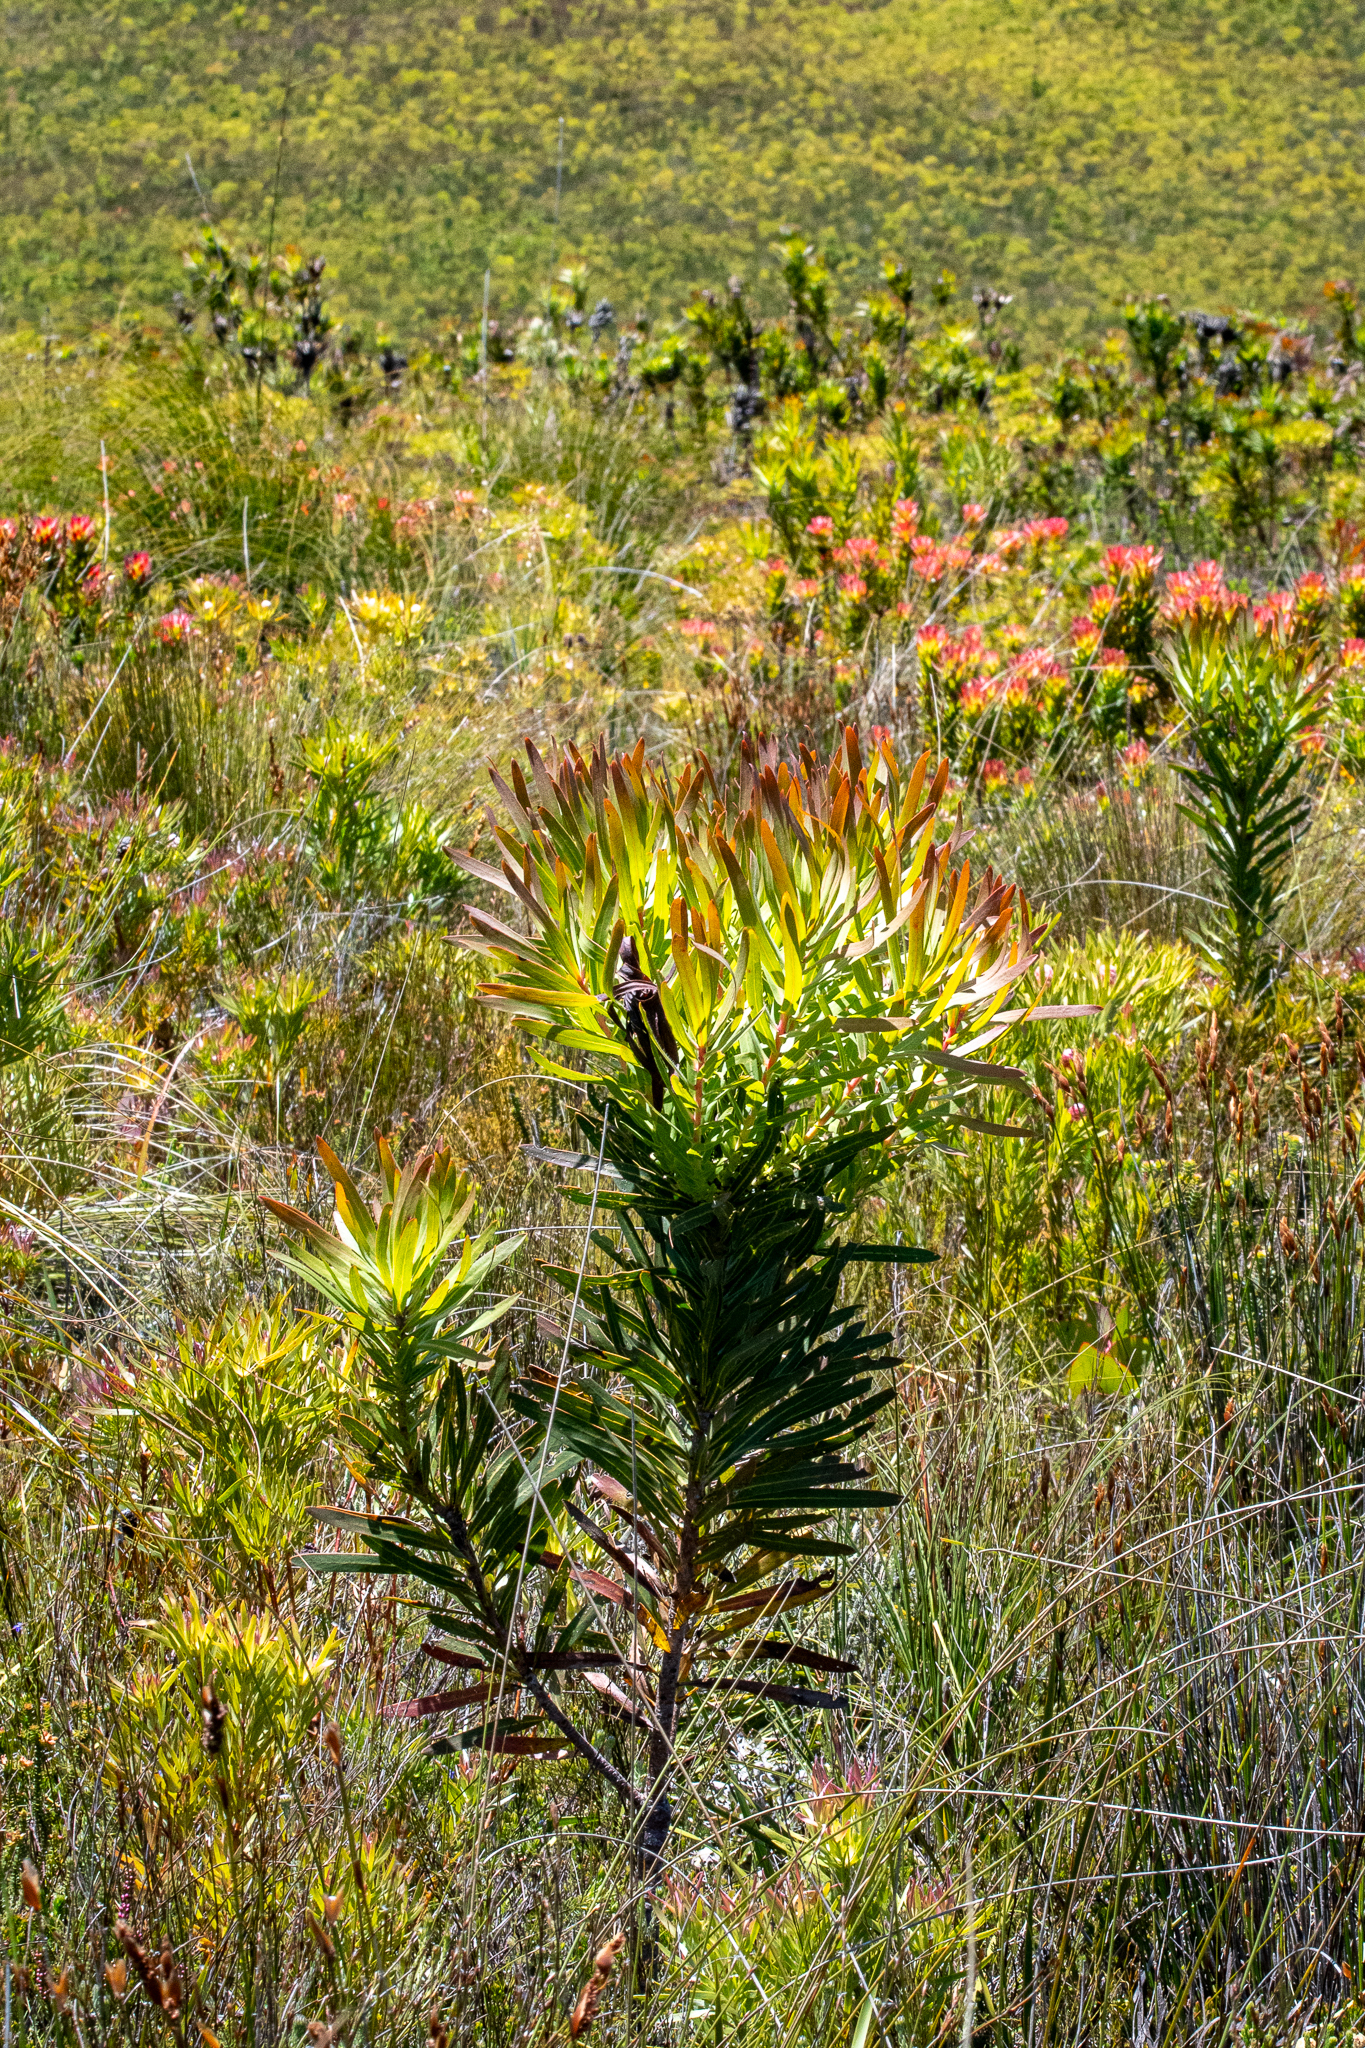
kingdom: Plantae
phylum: Tracheophyta
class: Magnoliopsida
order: Proteales
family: Proteaceae
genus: Protea
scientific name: Protea longifolia
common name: Long-leaf sugarbush
